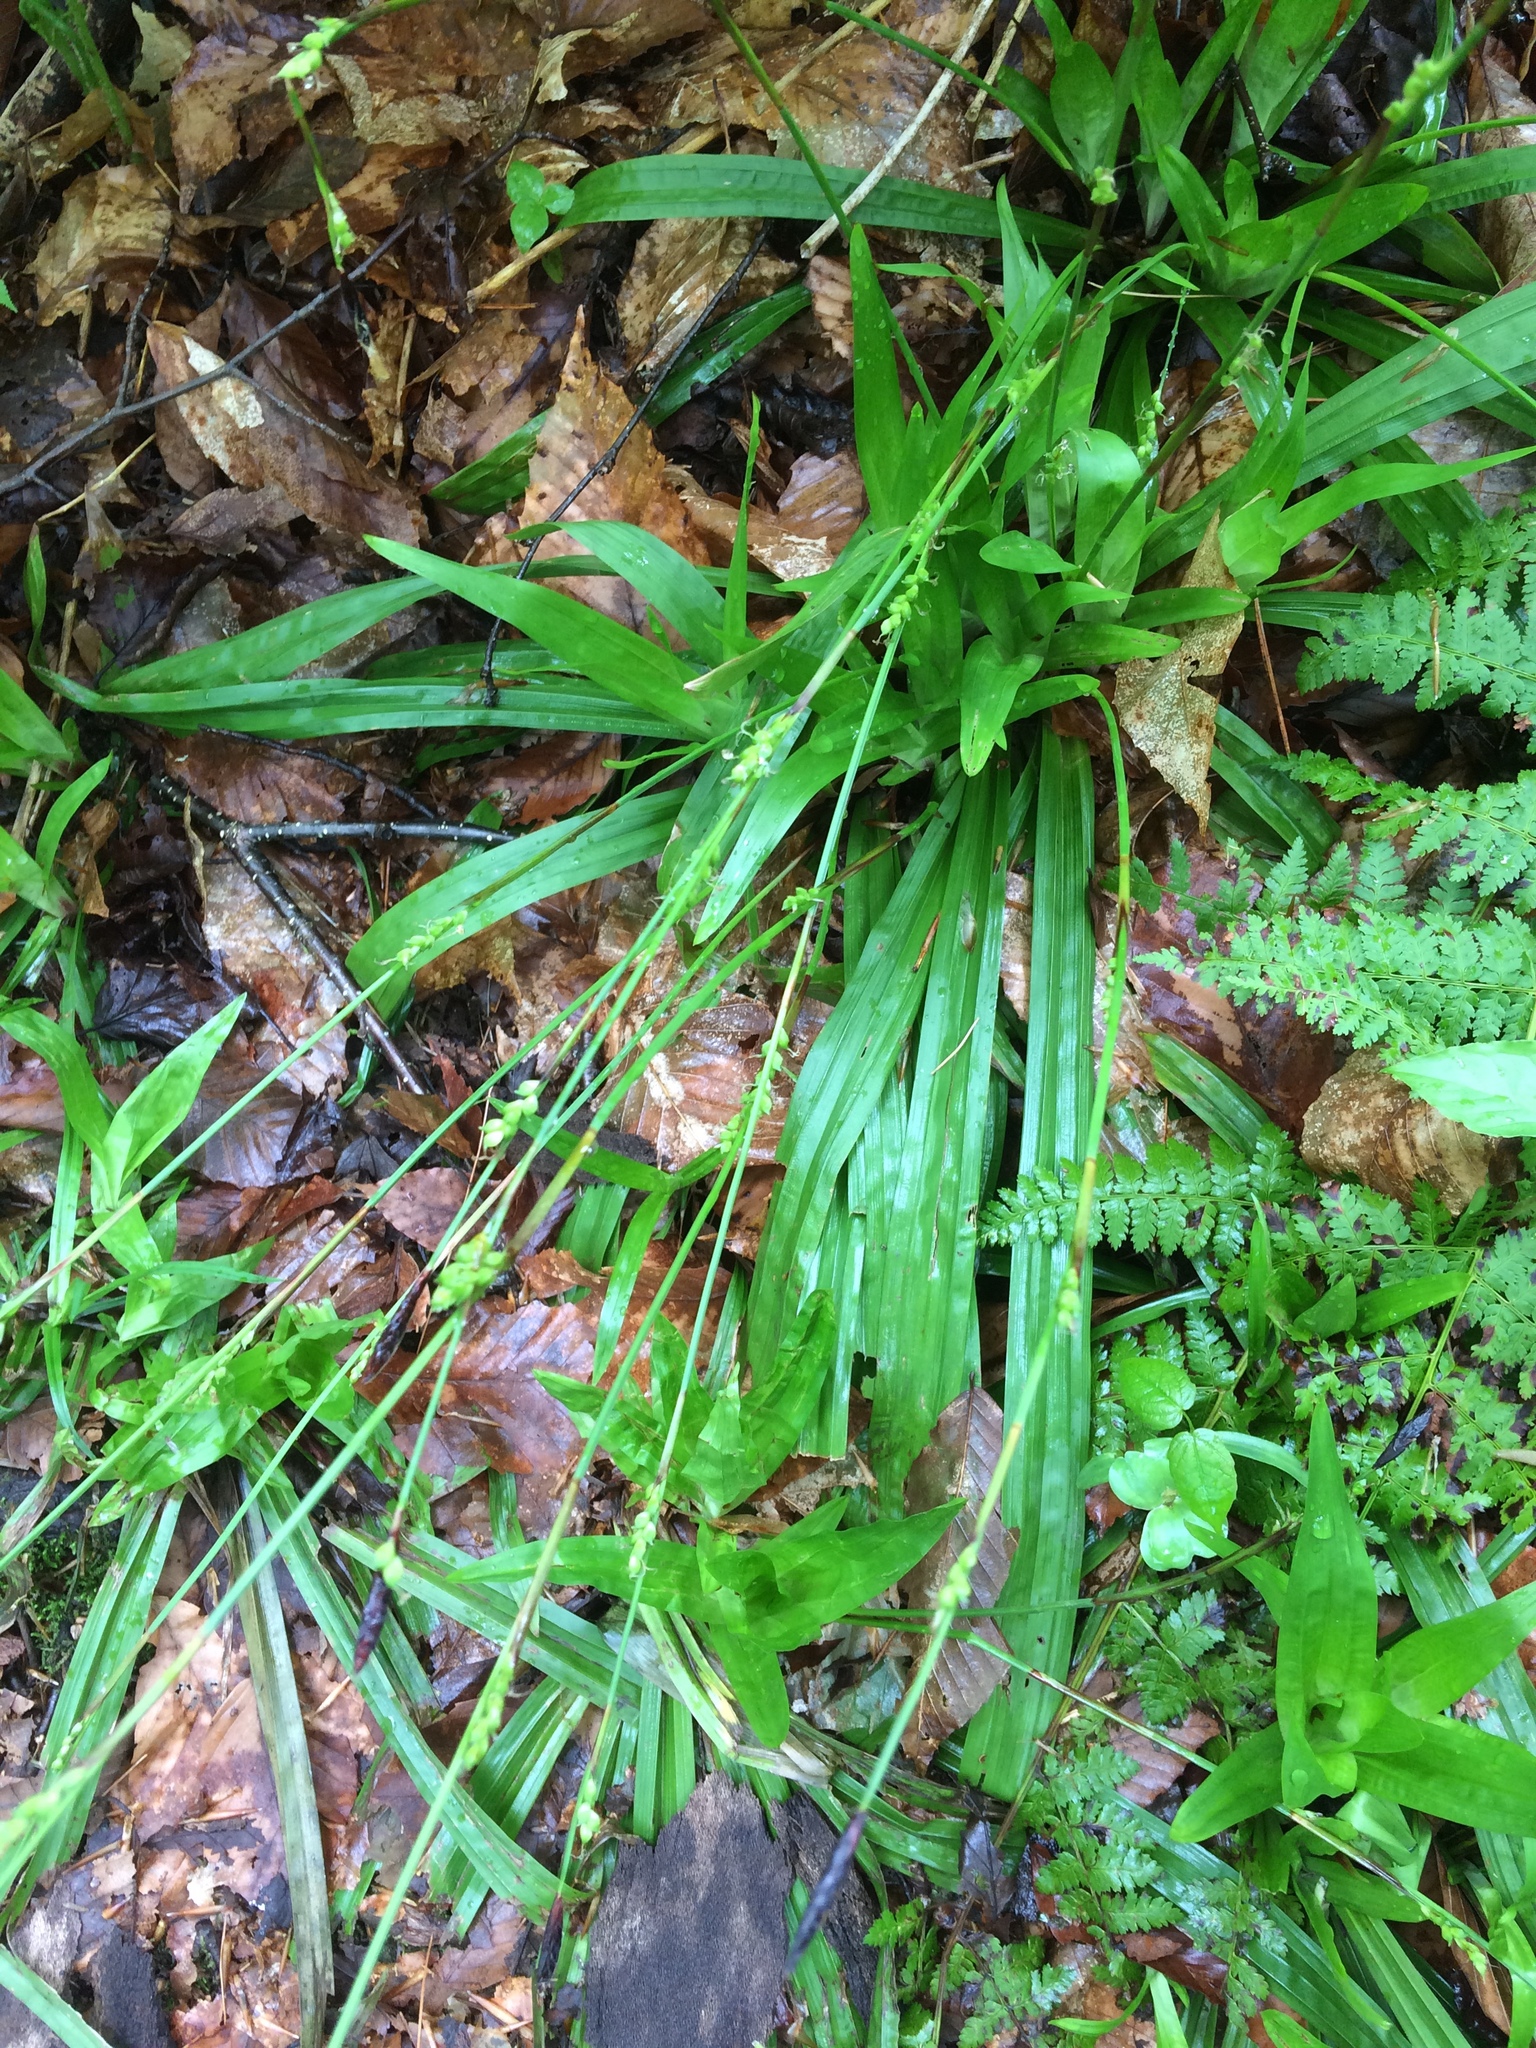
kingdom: Plantae
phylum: Tracheophyta
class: Liliopsida
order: Poales
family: Cyperaceae
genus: Carex
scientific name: Carex plantaginea
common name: Plantain-leaved sedge
